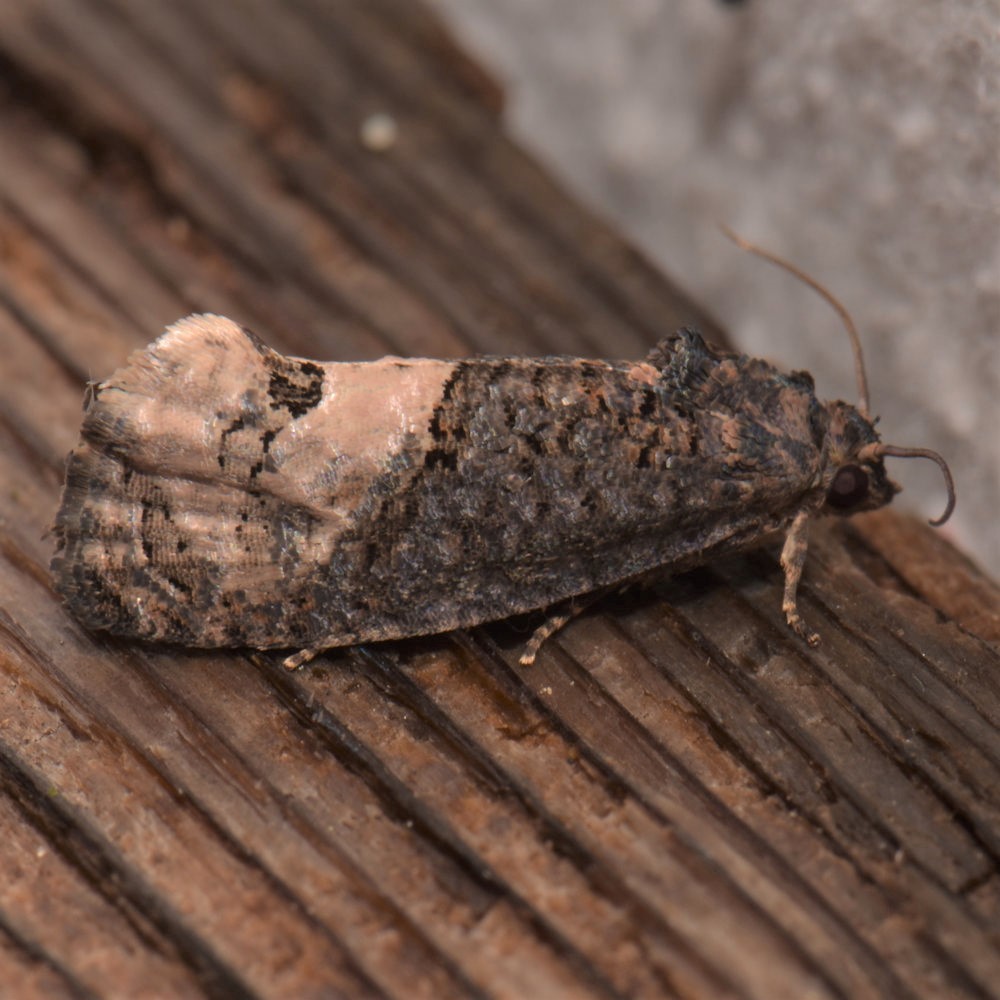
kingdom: Animalia
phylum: Arthropoda
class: Insecta
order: Lepidoptera
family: Tortricidae
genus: Ecdytolopha
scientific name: Ecdytolopha insiticiana
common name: Locust twig borer moth
